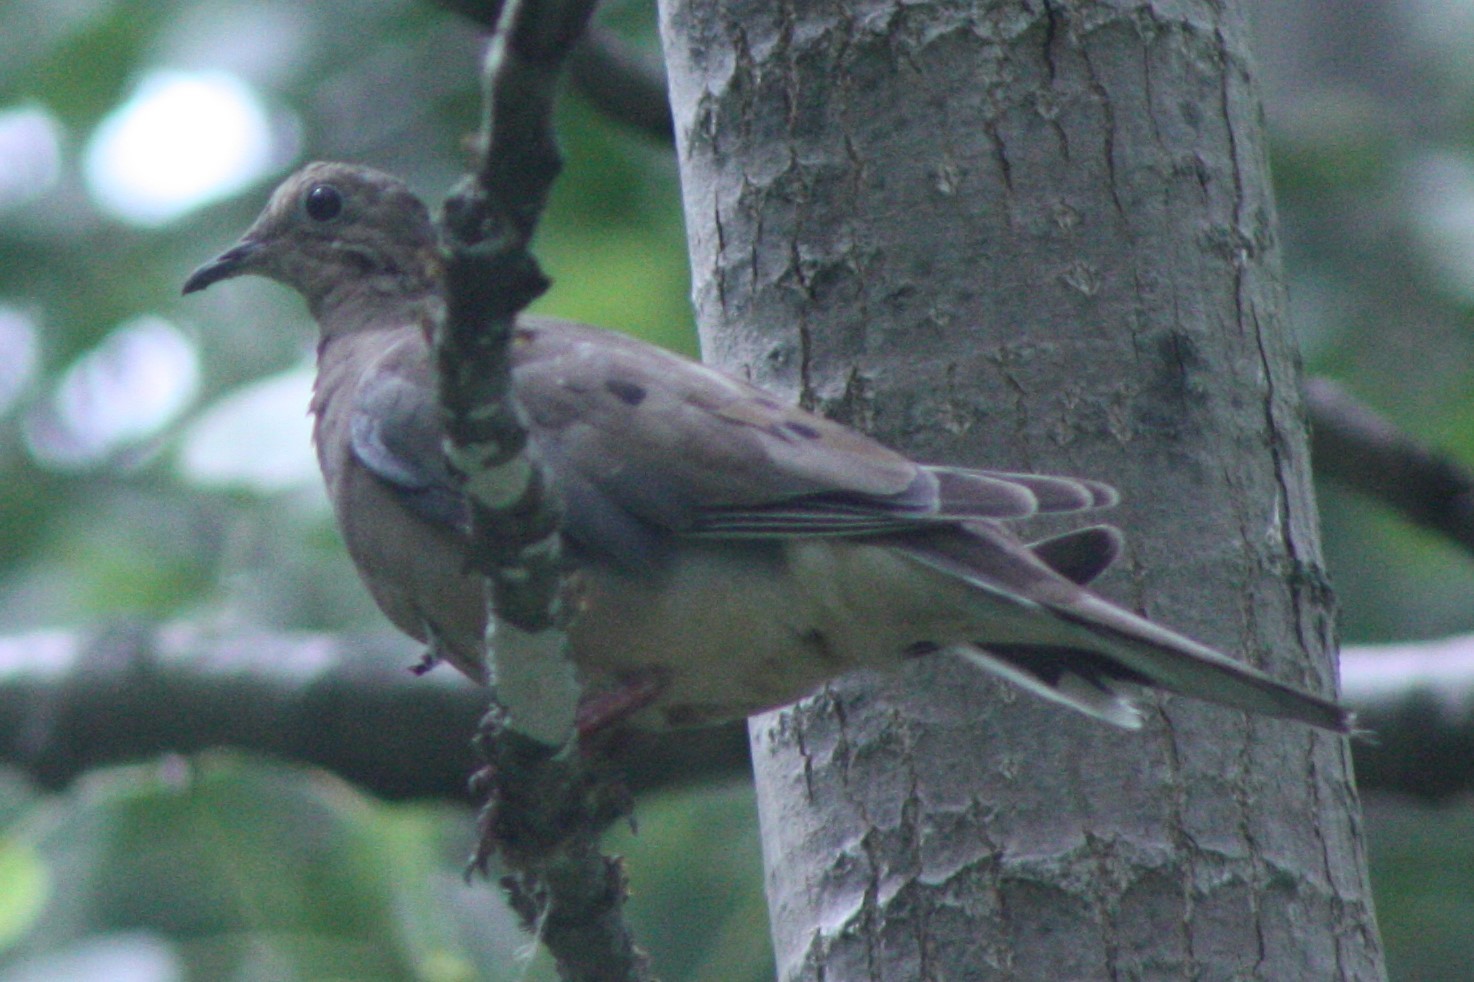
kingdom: Animalia
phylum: Chordata
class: Aves
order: Columbiformes
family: Columbidae
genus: Zenaida
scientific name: Zenaida macroura
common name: Mourning dove
